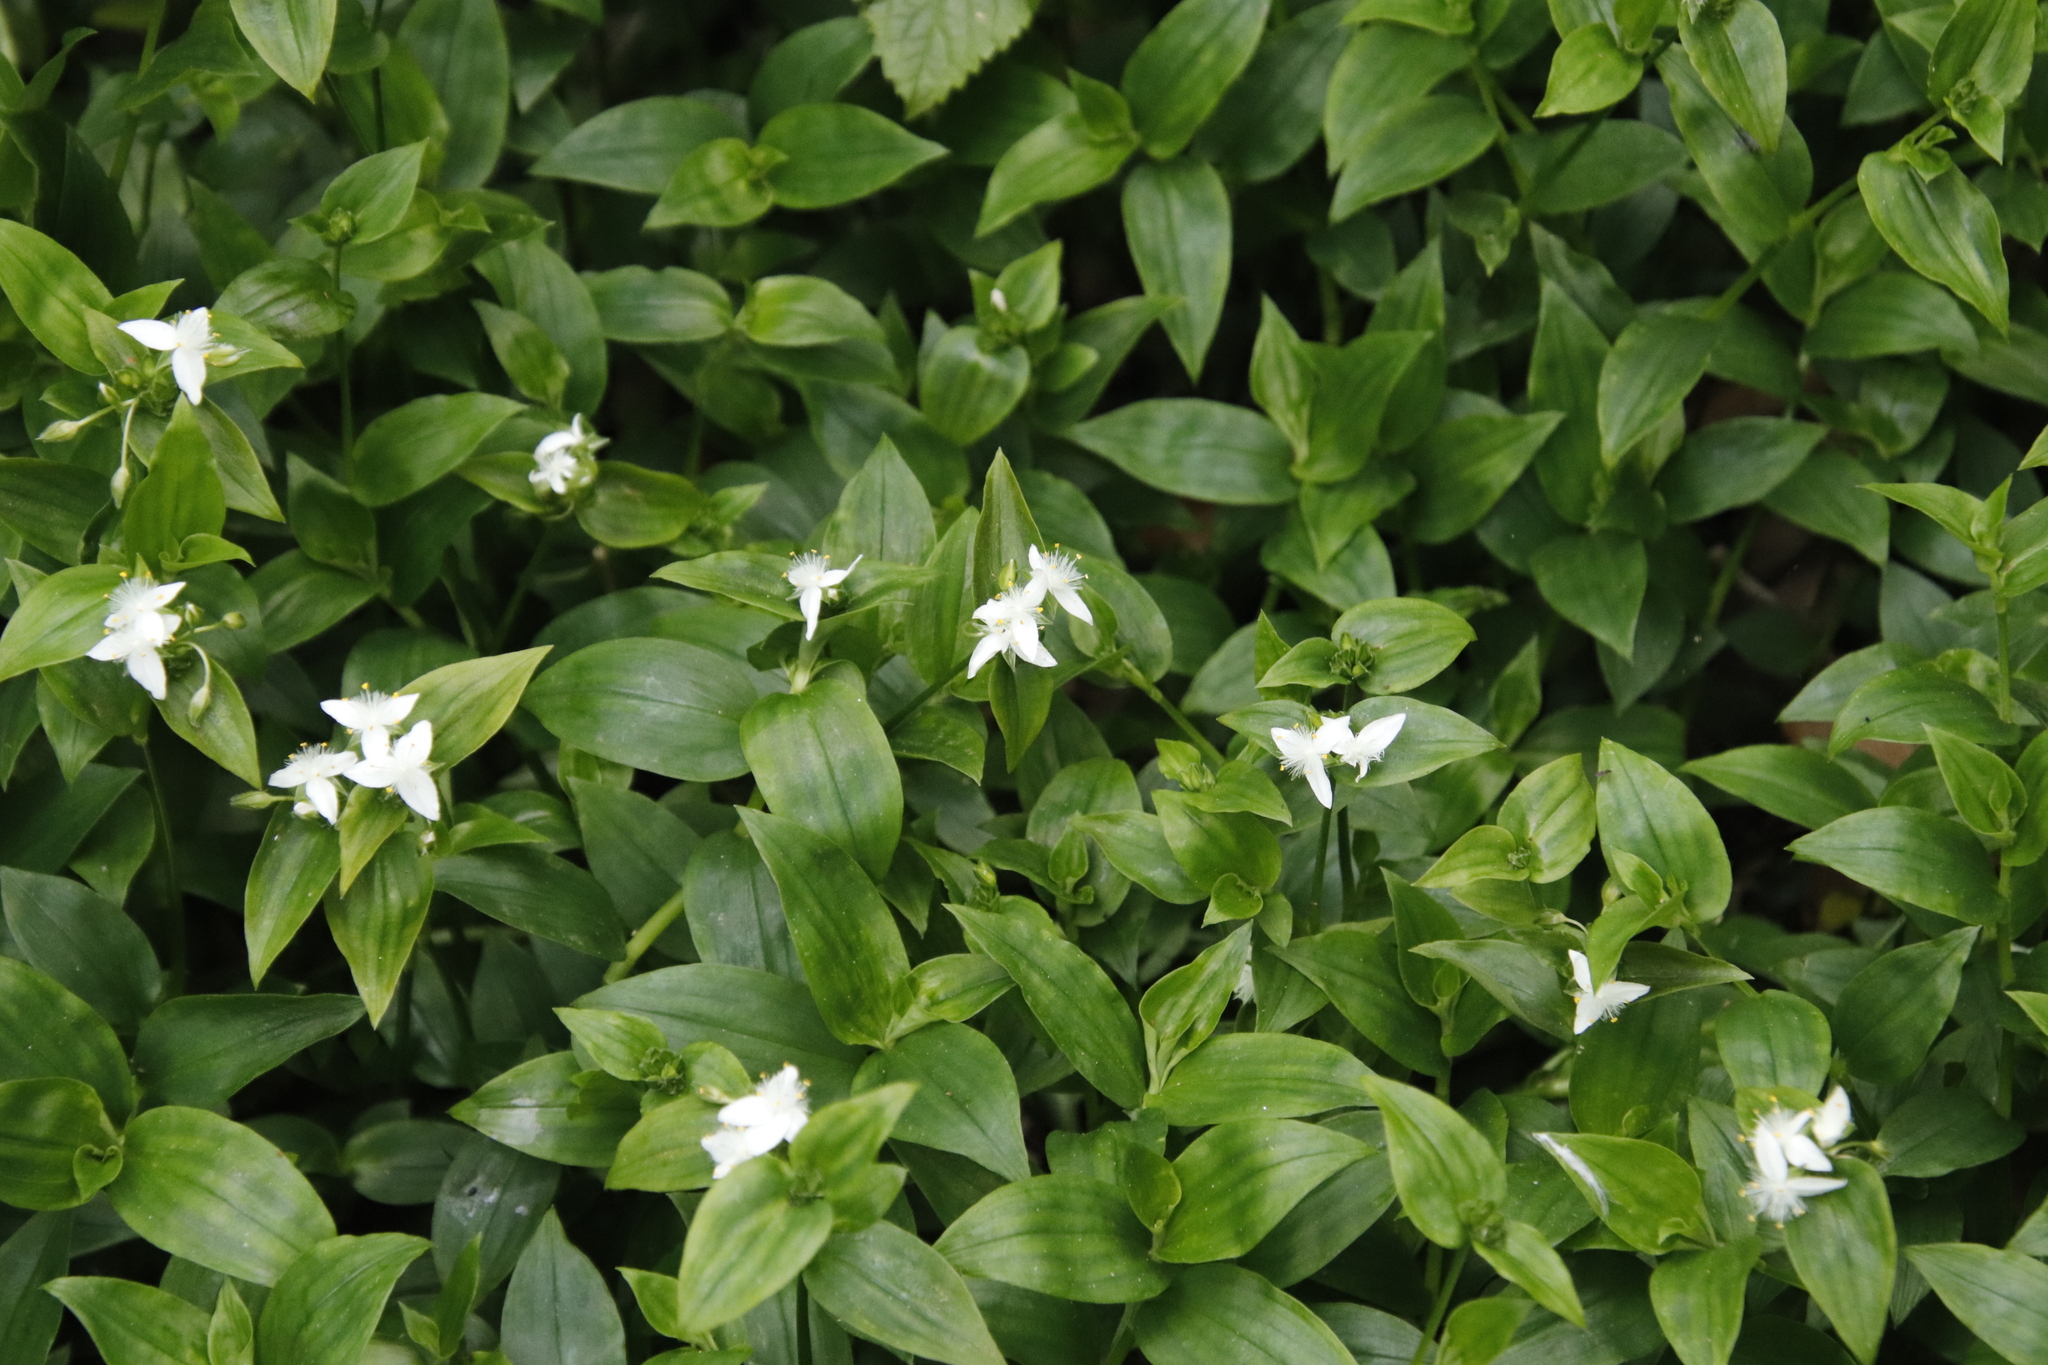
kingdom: Plantae
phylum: Tracheophyta
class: Liliopsida
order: Commelinales
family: Commelinaceae
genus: Tradescantia
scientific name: Tradescantia fluminensis
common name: Wandering-jew
